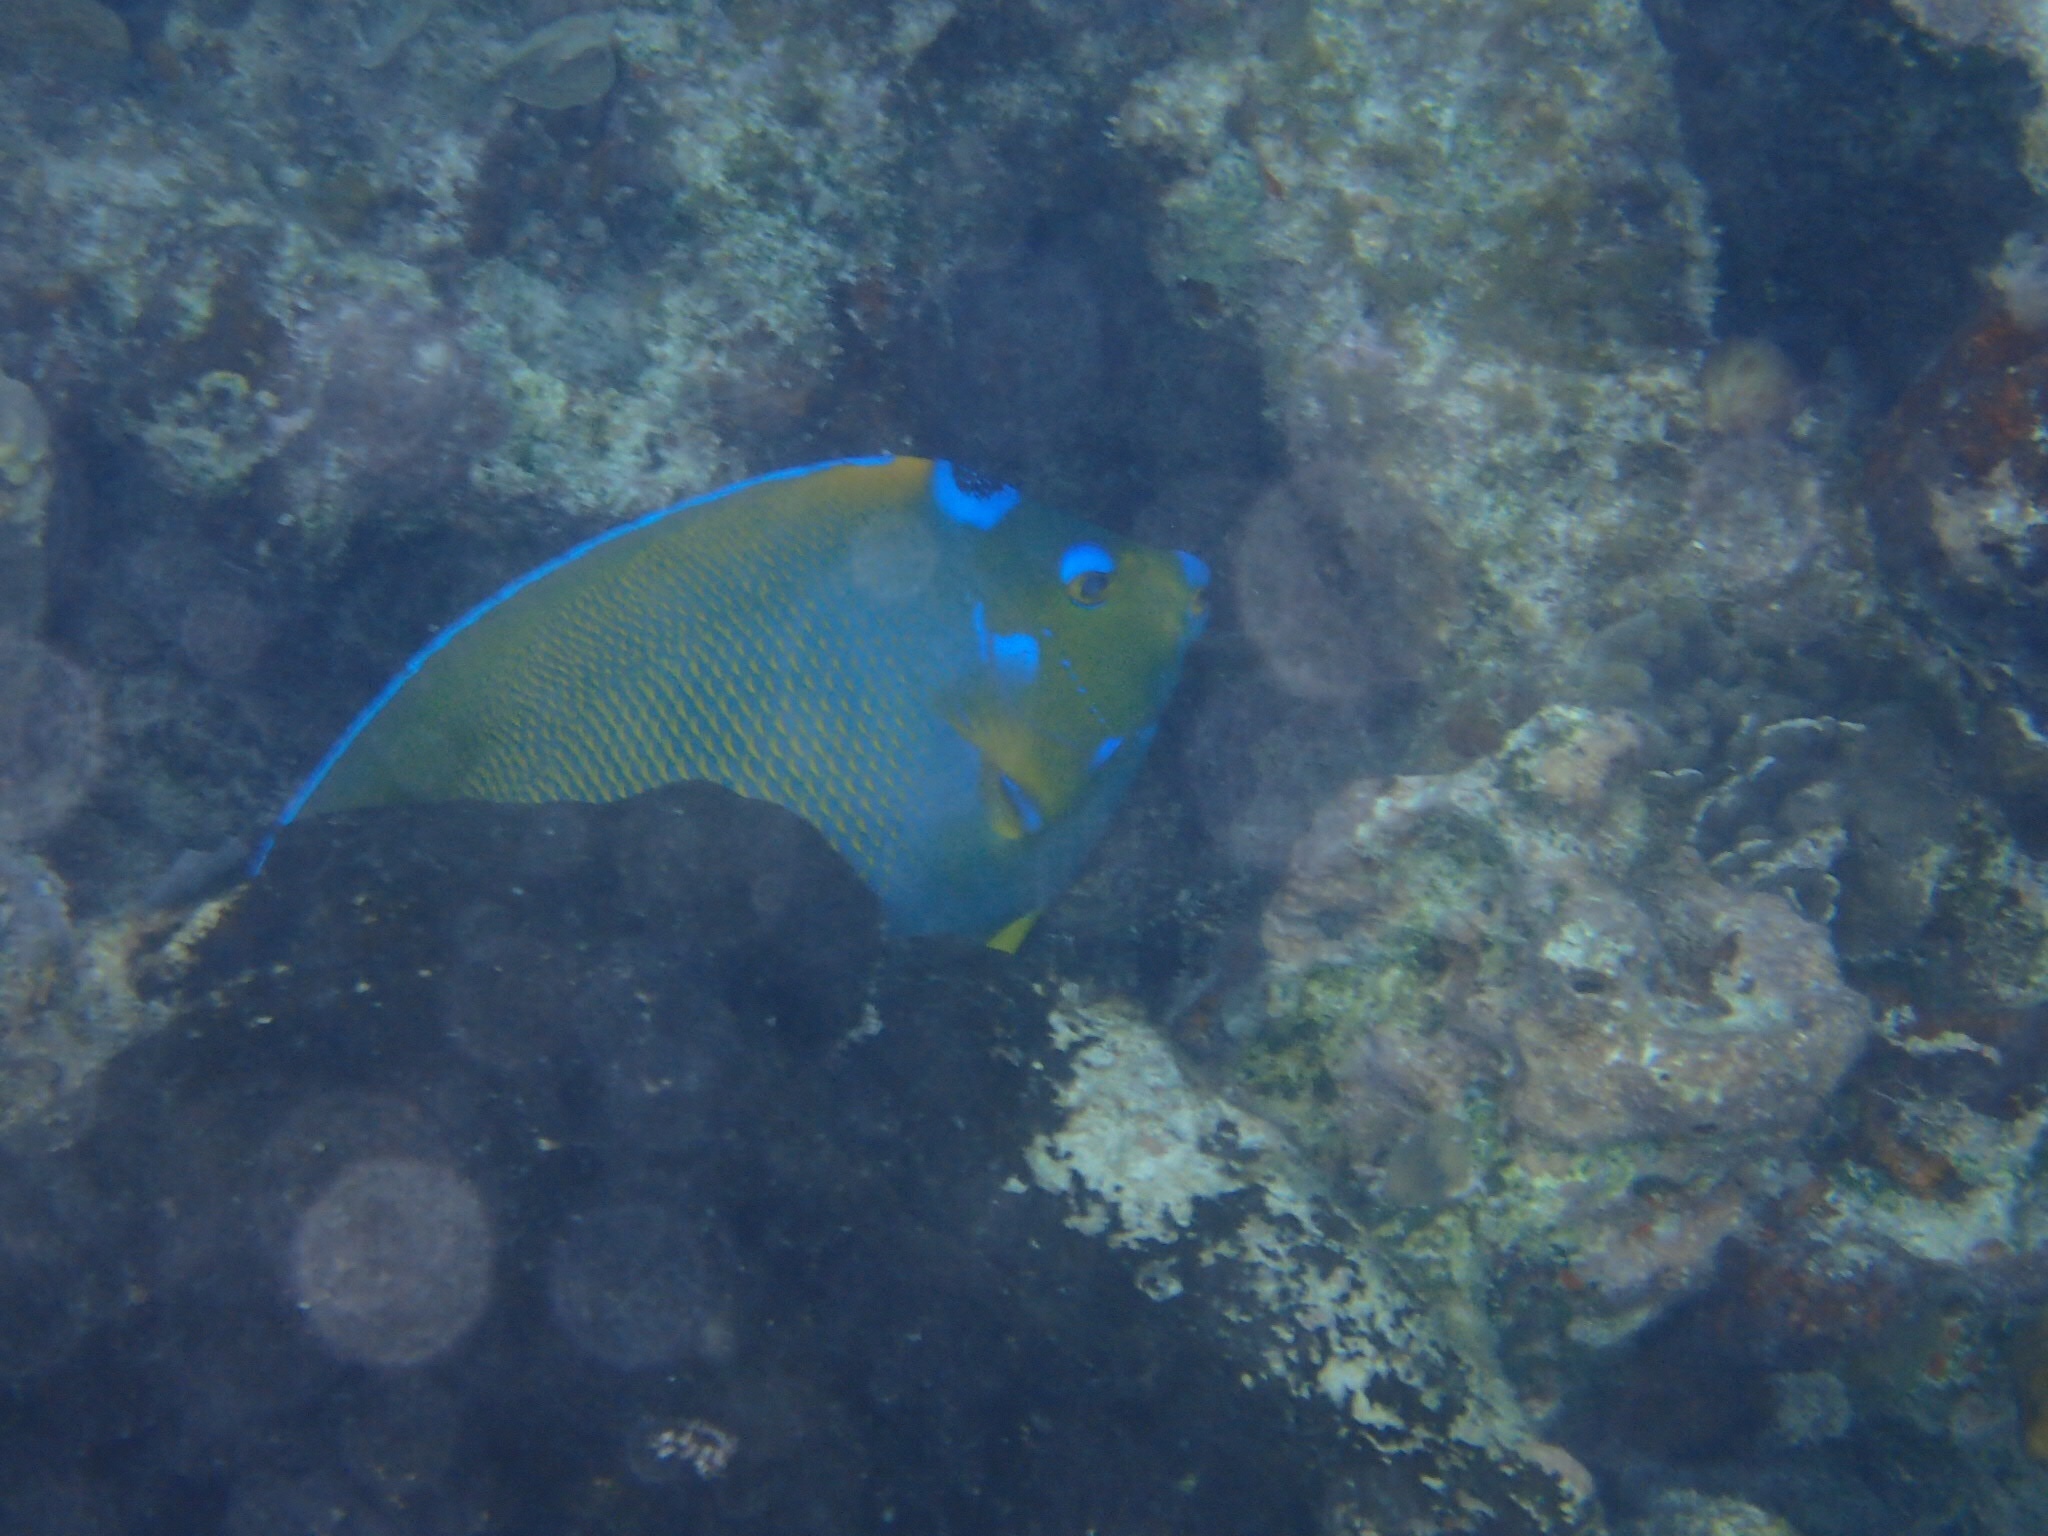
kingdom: Animalia
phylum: Chordata
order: Perciformes
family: Pomacanthidae
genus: Holacanthus
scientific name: Holacanthus ciliaris
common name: Queen angelfish
